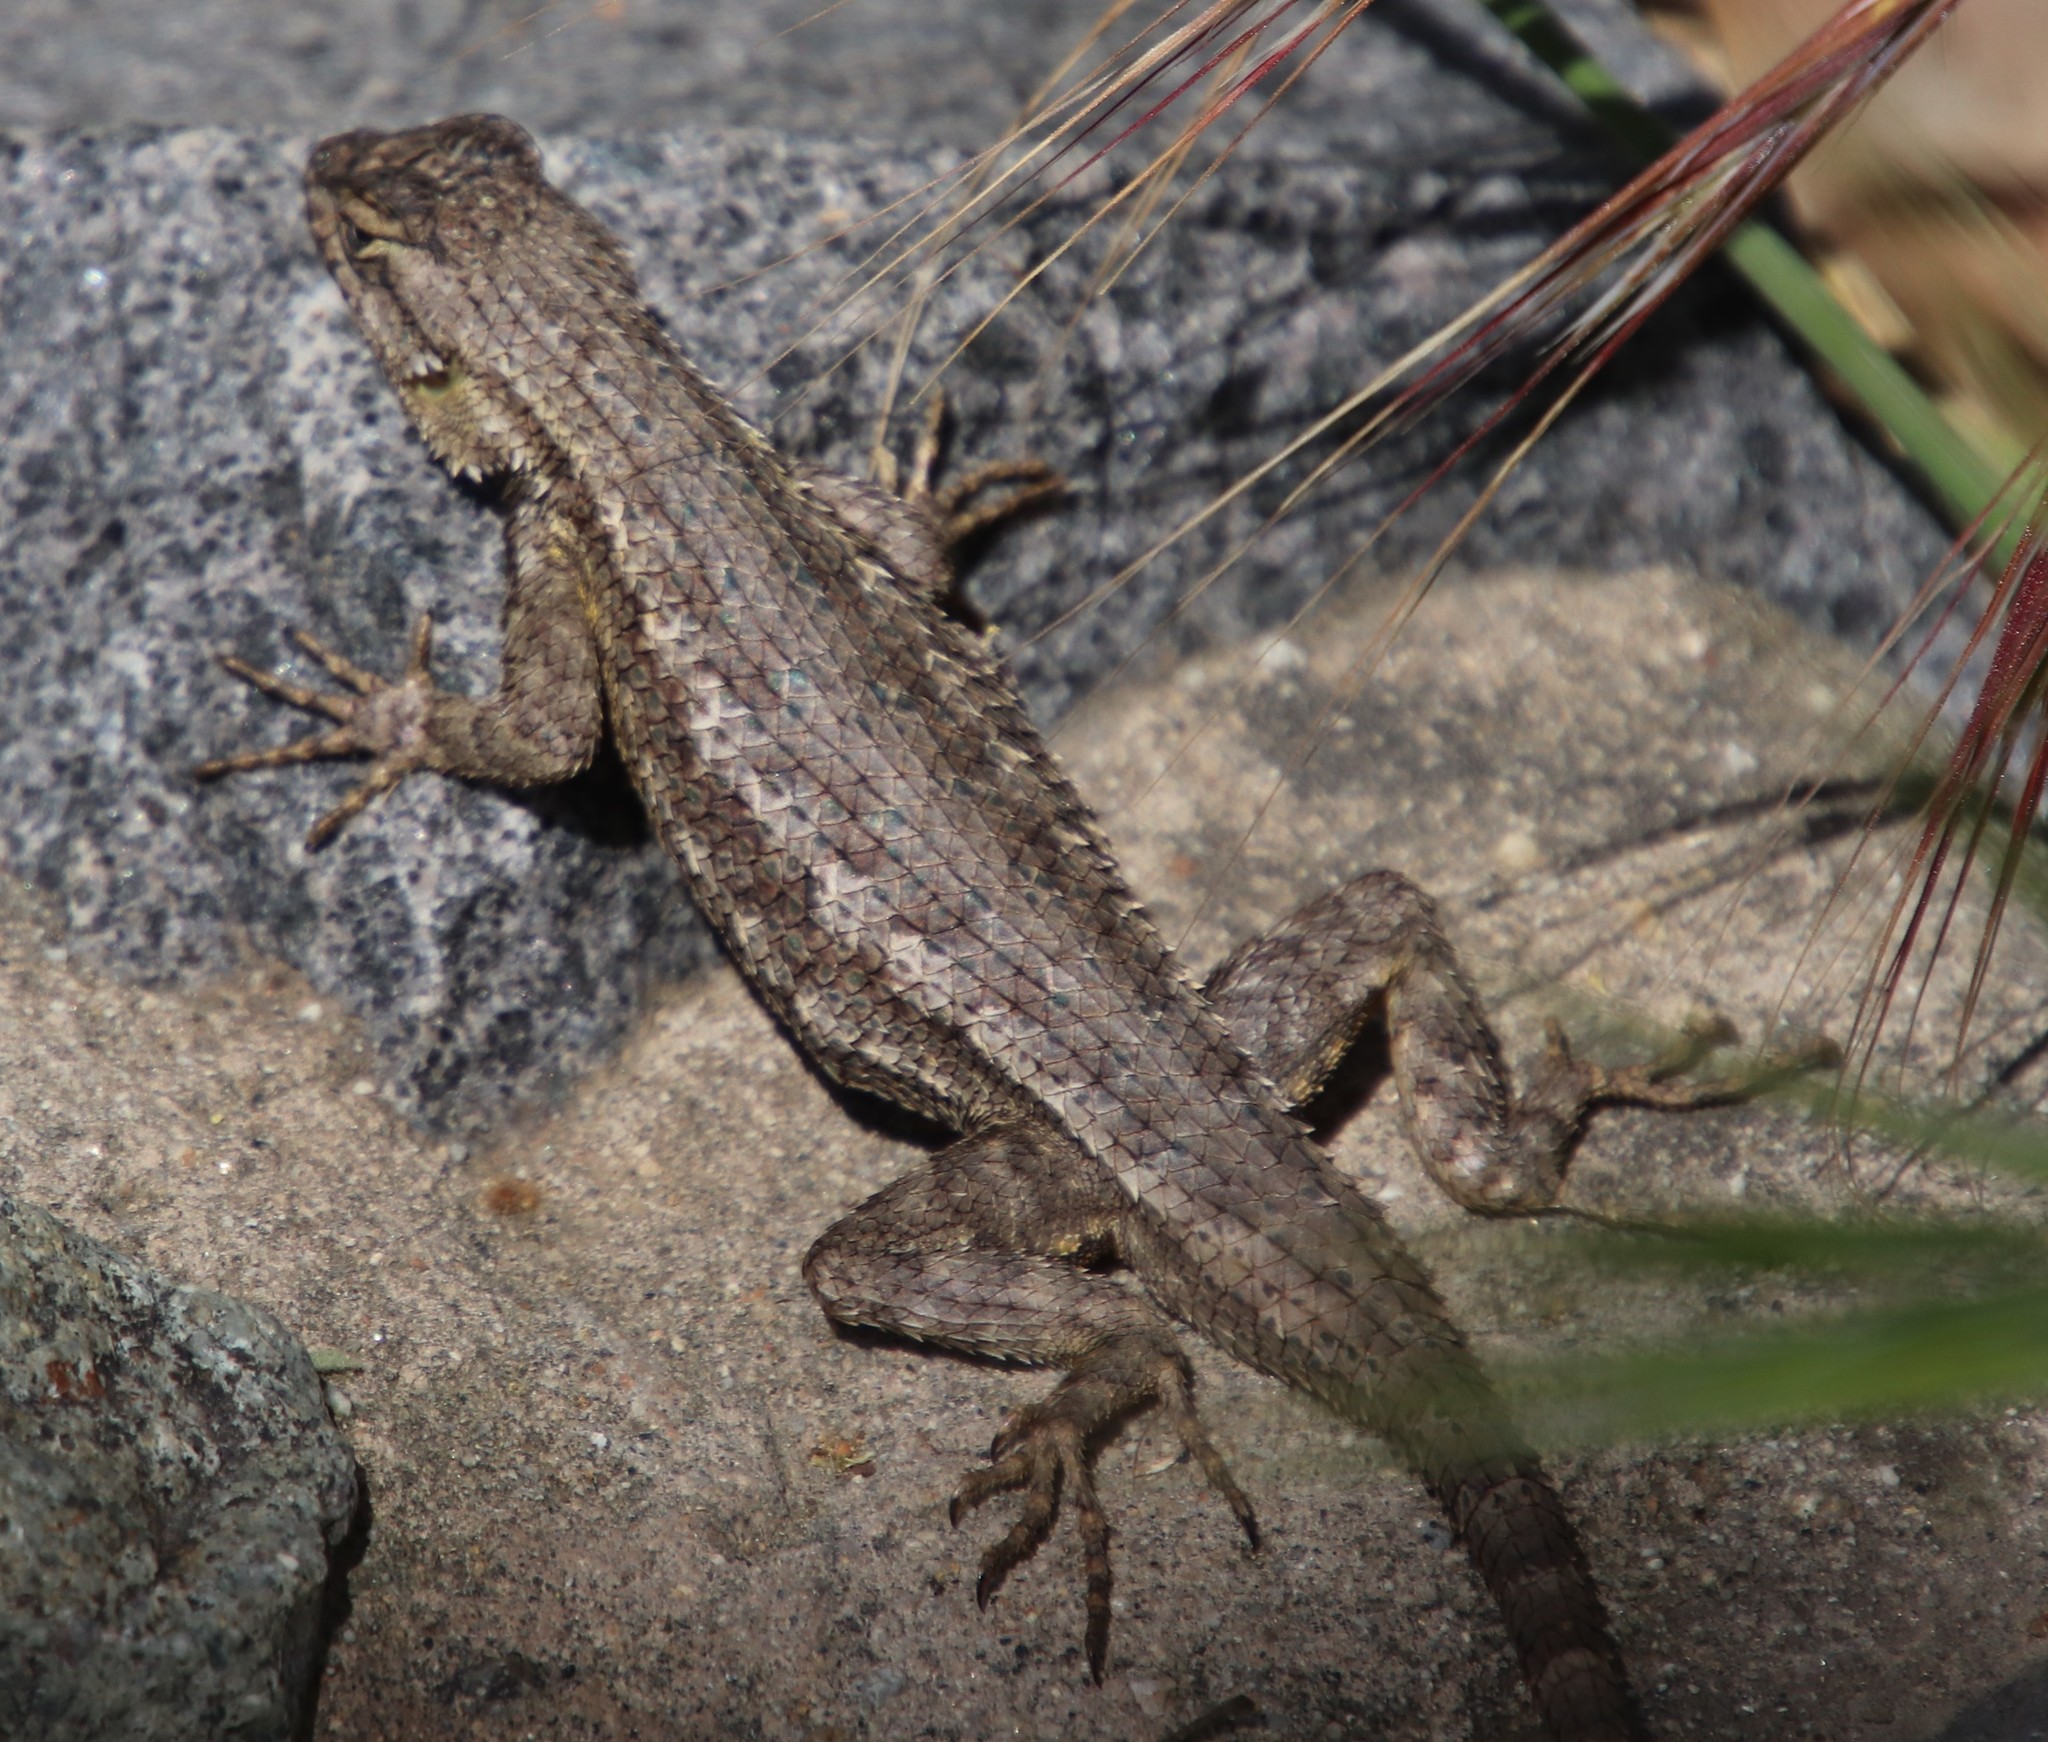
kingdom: Animalia
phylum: Chordata
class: Squamata
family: Phrynosomatidae
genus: Sceloporus
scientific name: Sceloporus occidentalis
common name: Western fence lizard
